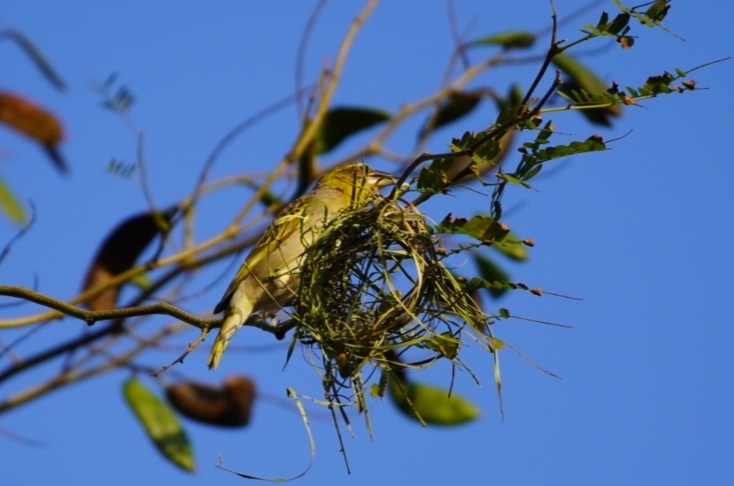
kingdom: Animalia
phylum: Chordata
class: Aves
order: Passeriformes
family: Ploceidae
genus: Ploceus
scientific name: Ploceus cucullatus
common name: Village weaver
